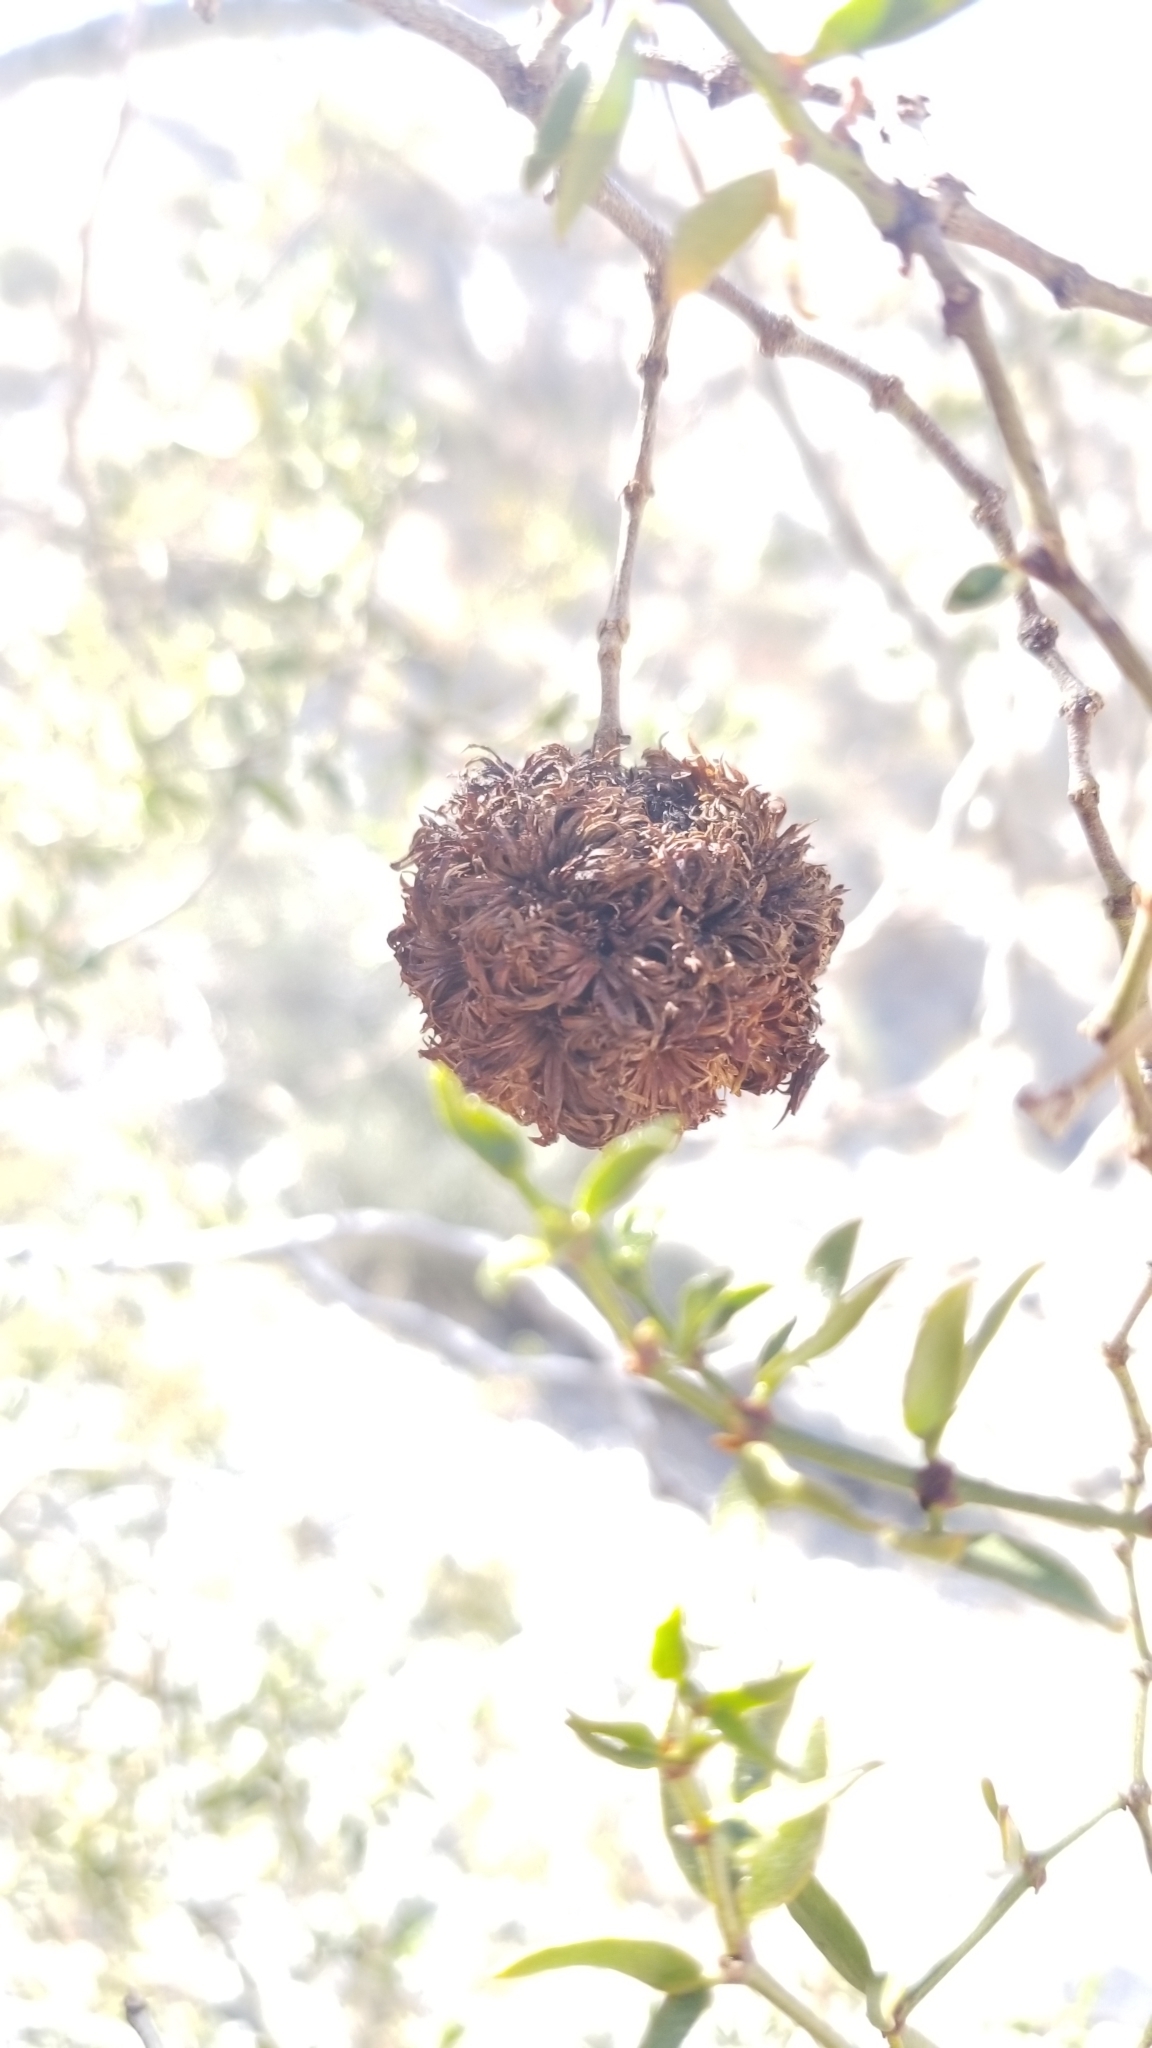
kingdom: Animalia
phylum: Arthropoda
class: Insecta
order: Diptera
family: Cecidomyiidae
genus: Asphondylia
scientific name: Asphondylia auripila
